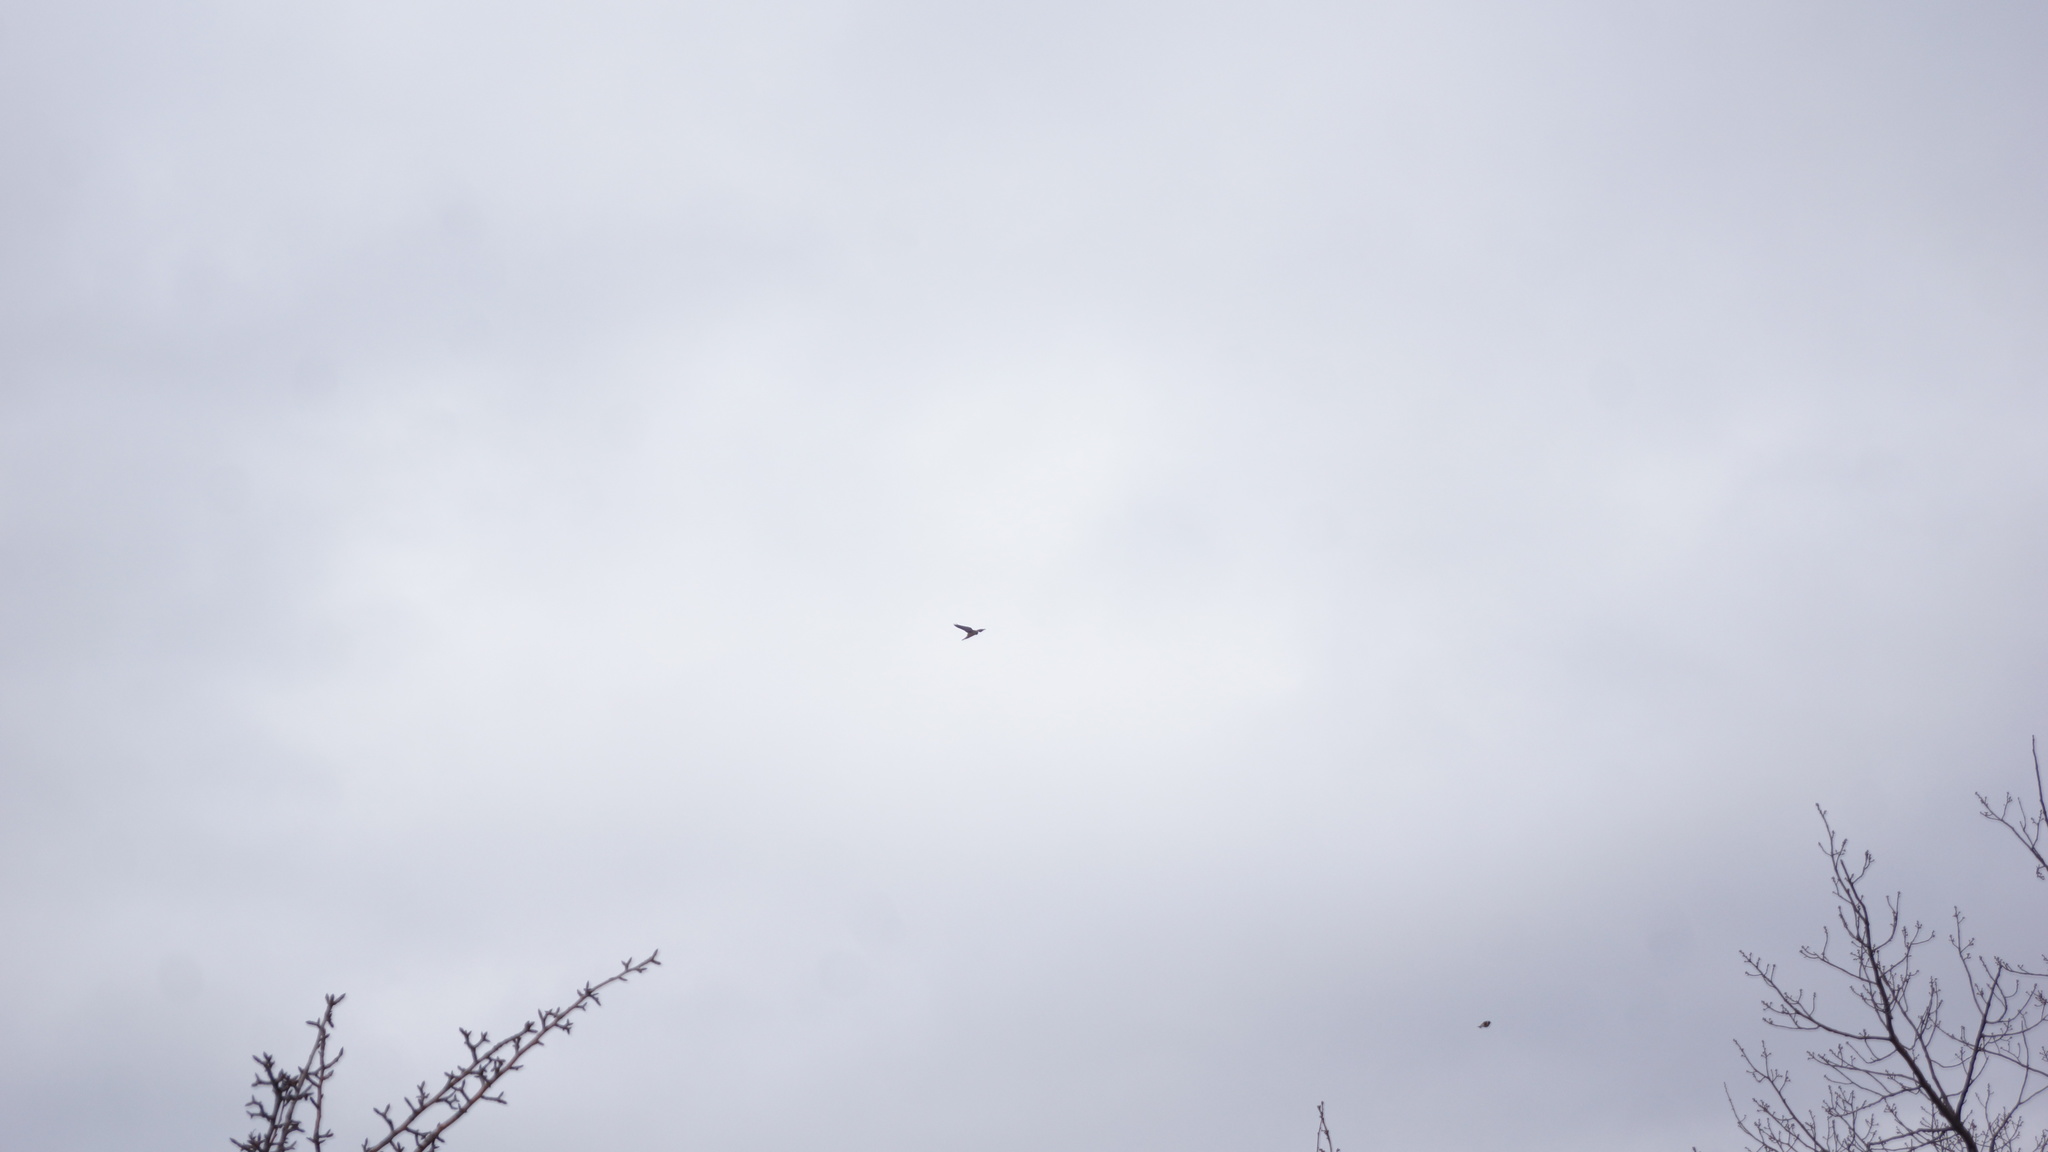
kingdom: Animalia
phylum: Chordata
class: Aves
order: Falconiformes
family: Falconidae
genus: Falco
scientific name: Falco tinnunculus
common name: Common kestrel
